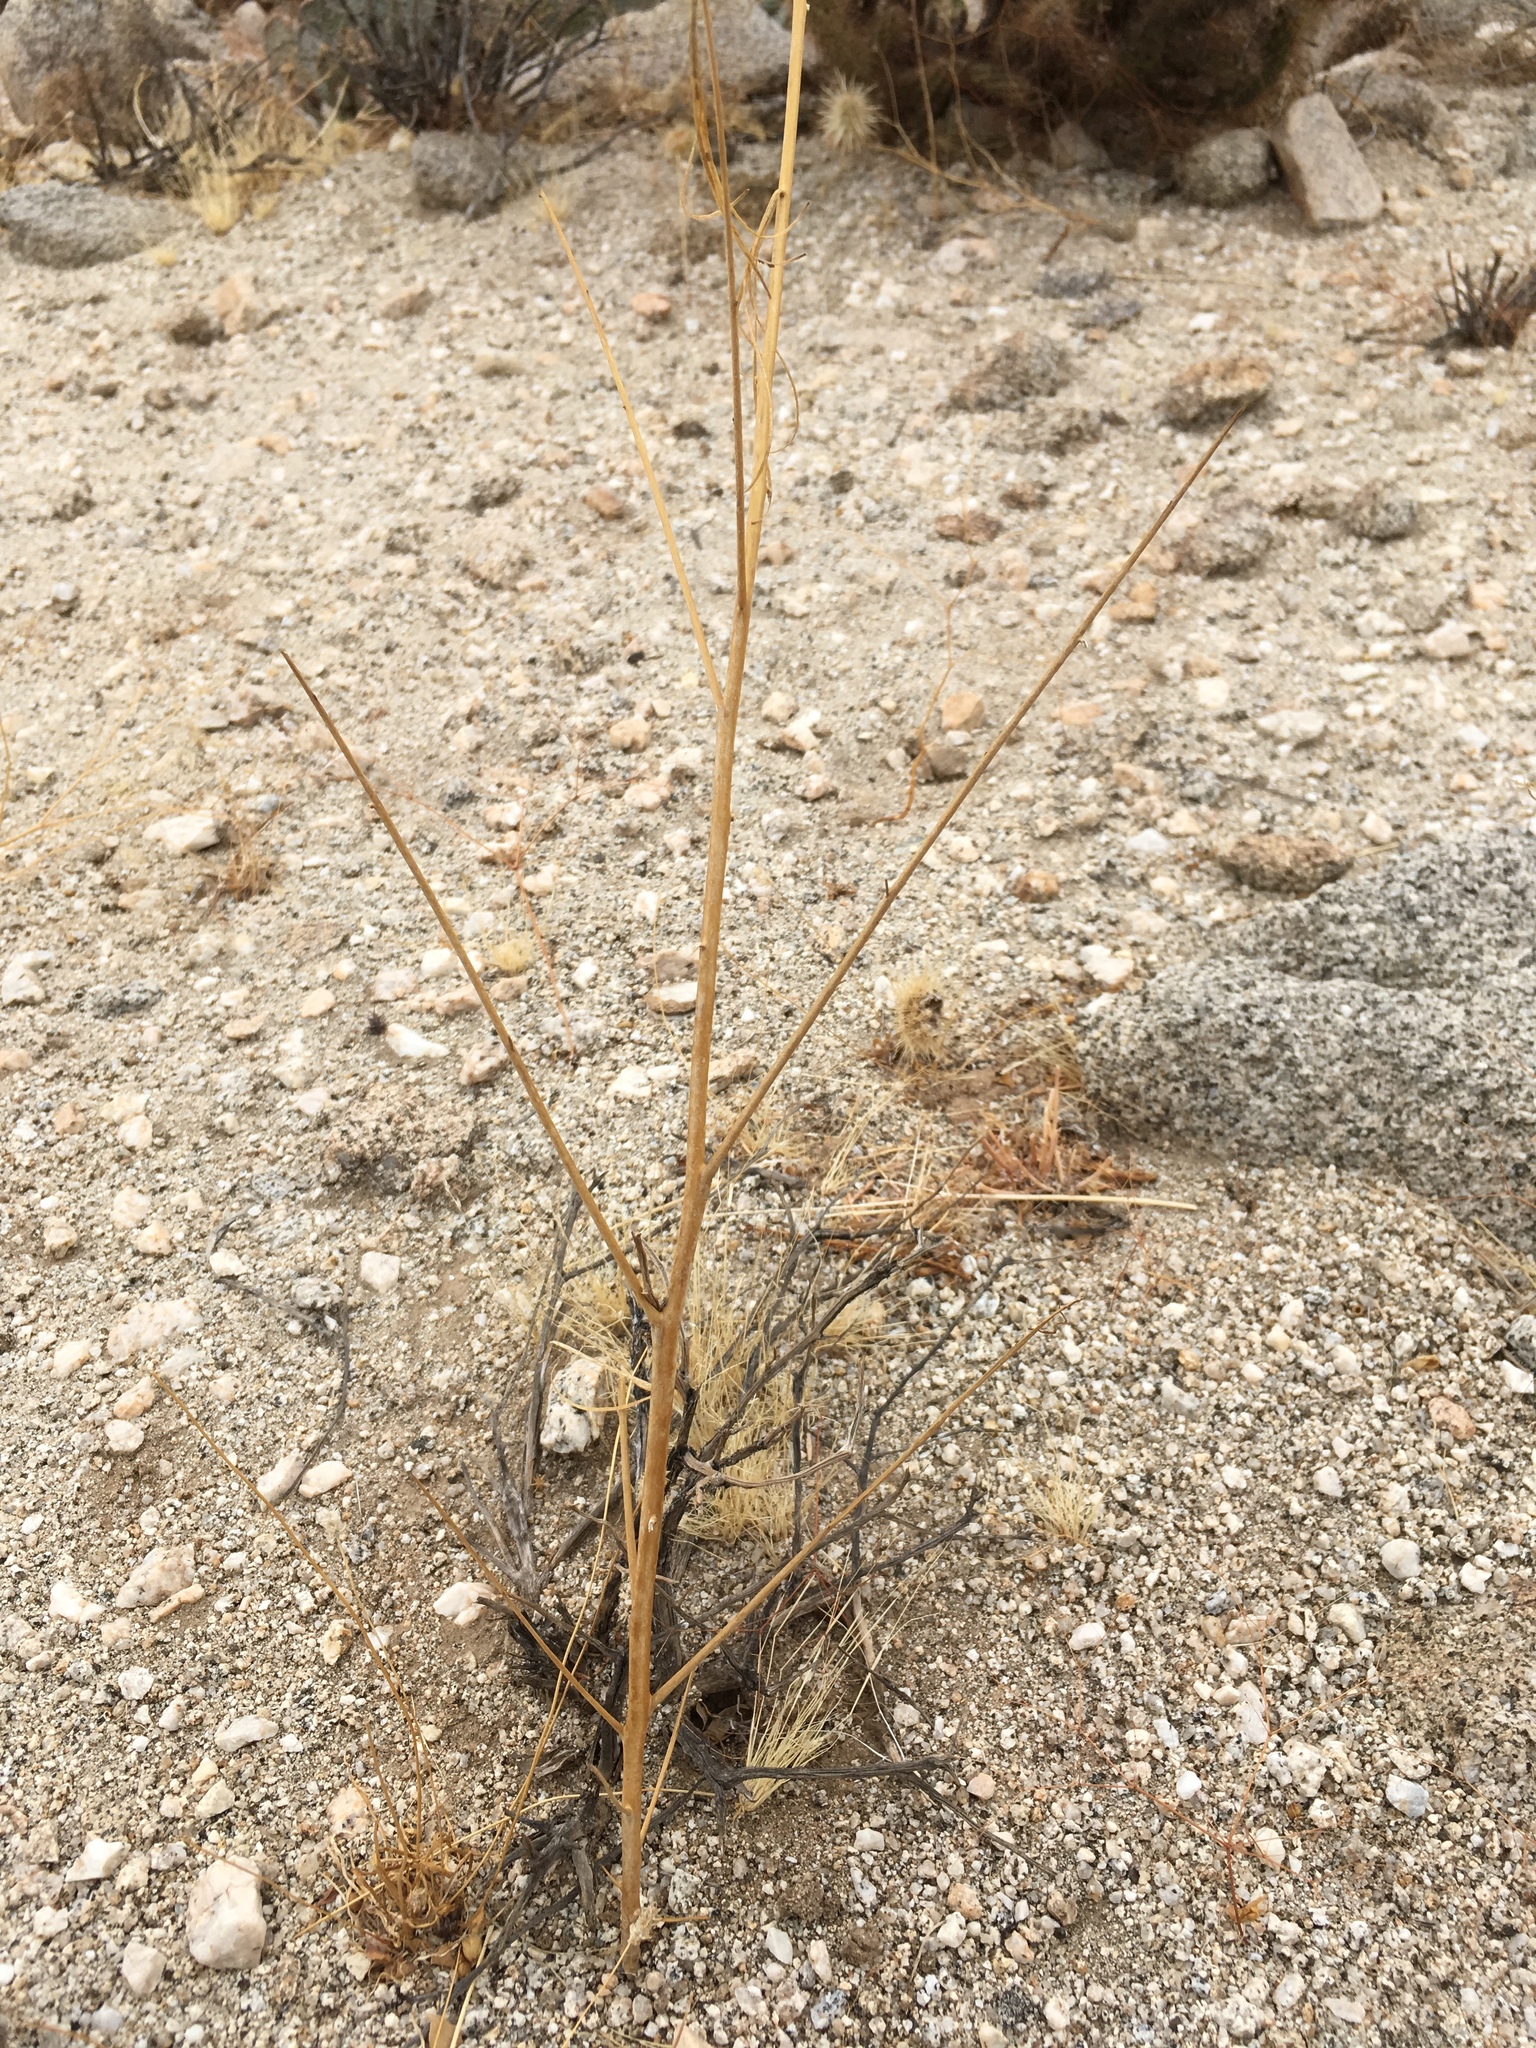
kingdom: Plantae
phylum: Tracheophyta
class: Magnoliopsida
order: Myrtales
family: Onagraceae
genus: Eulobus
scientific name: Eulobus californicus
